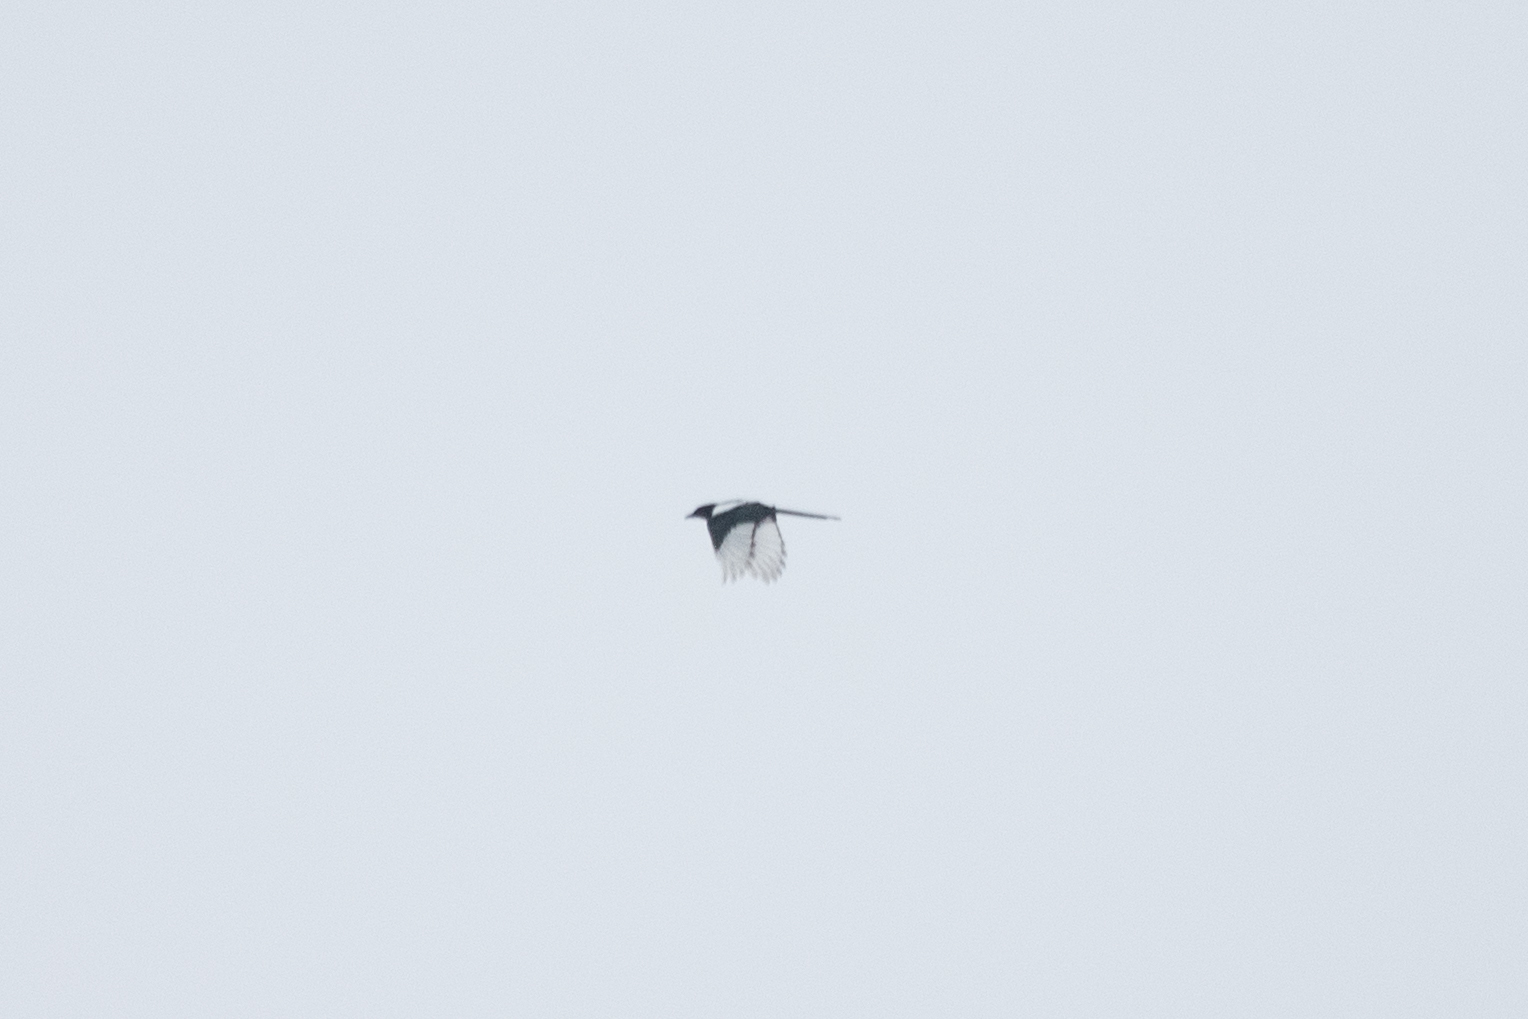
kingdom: Animalia
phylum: Chordata
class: Aves
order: Passeriformes
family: Corvidae
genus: Pica
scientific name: Pica pica
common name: Eurasian magpie
